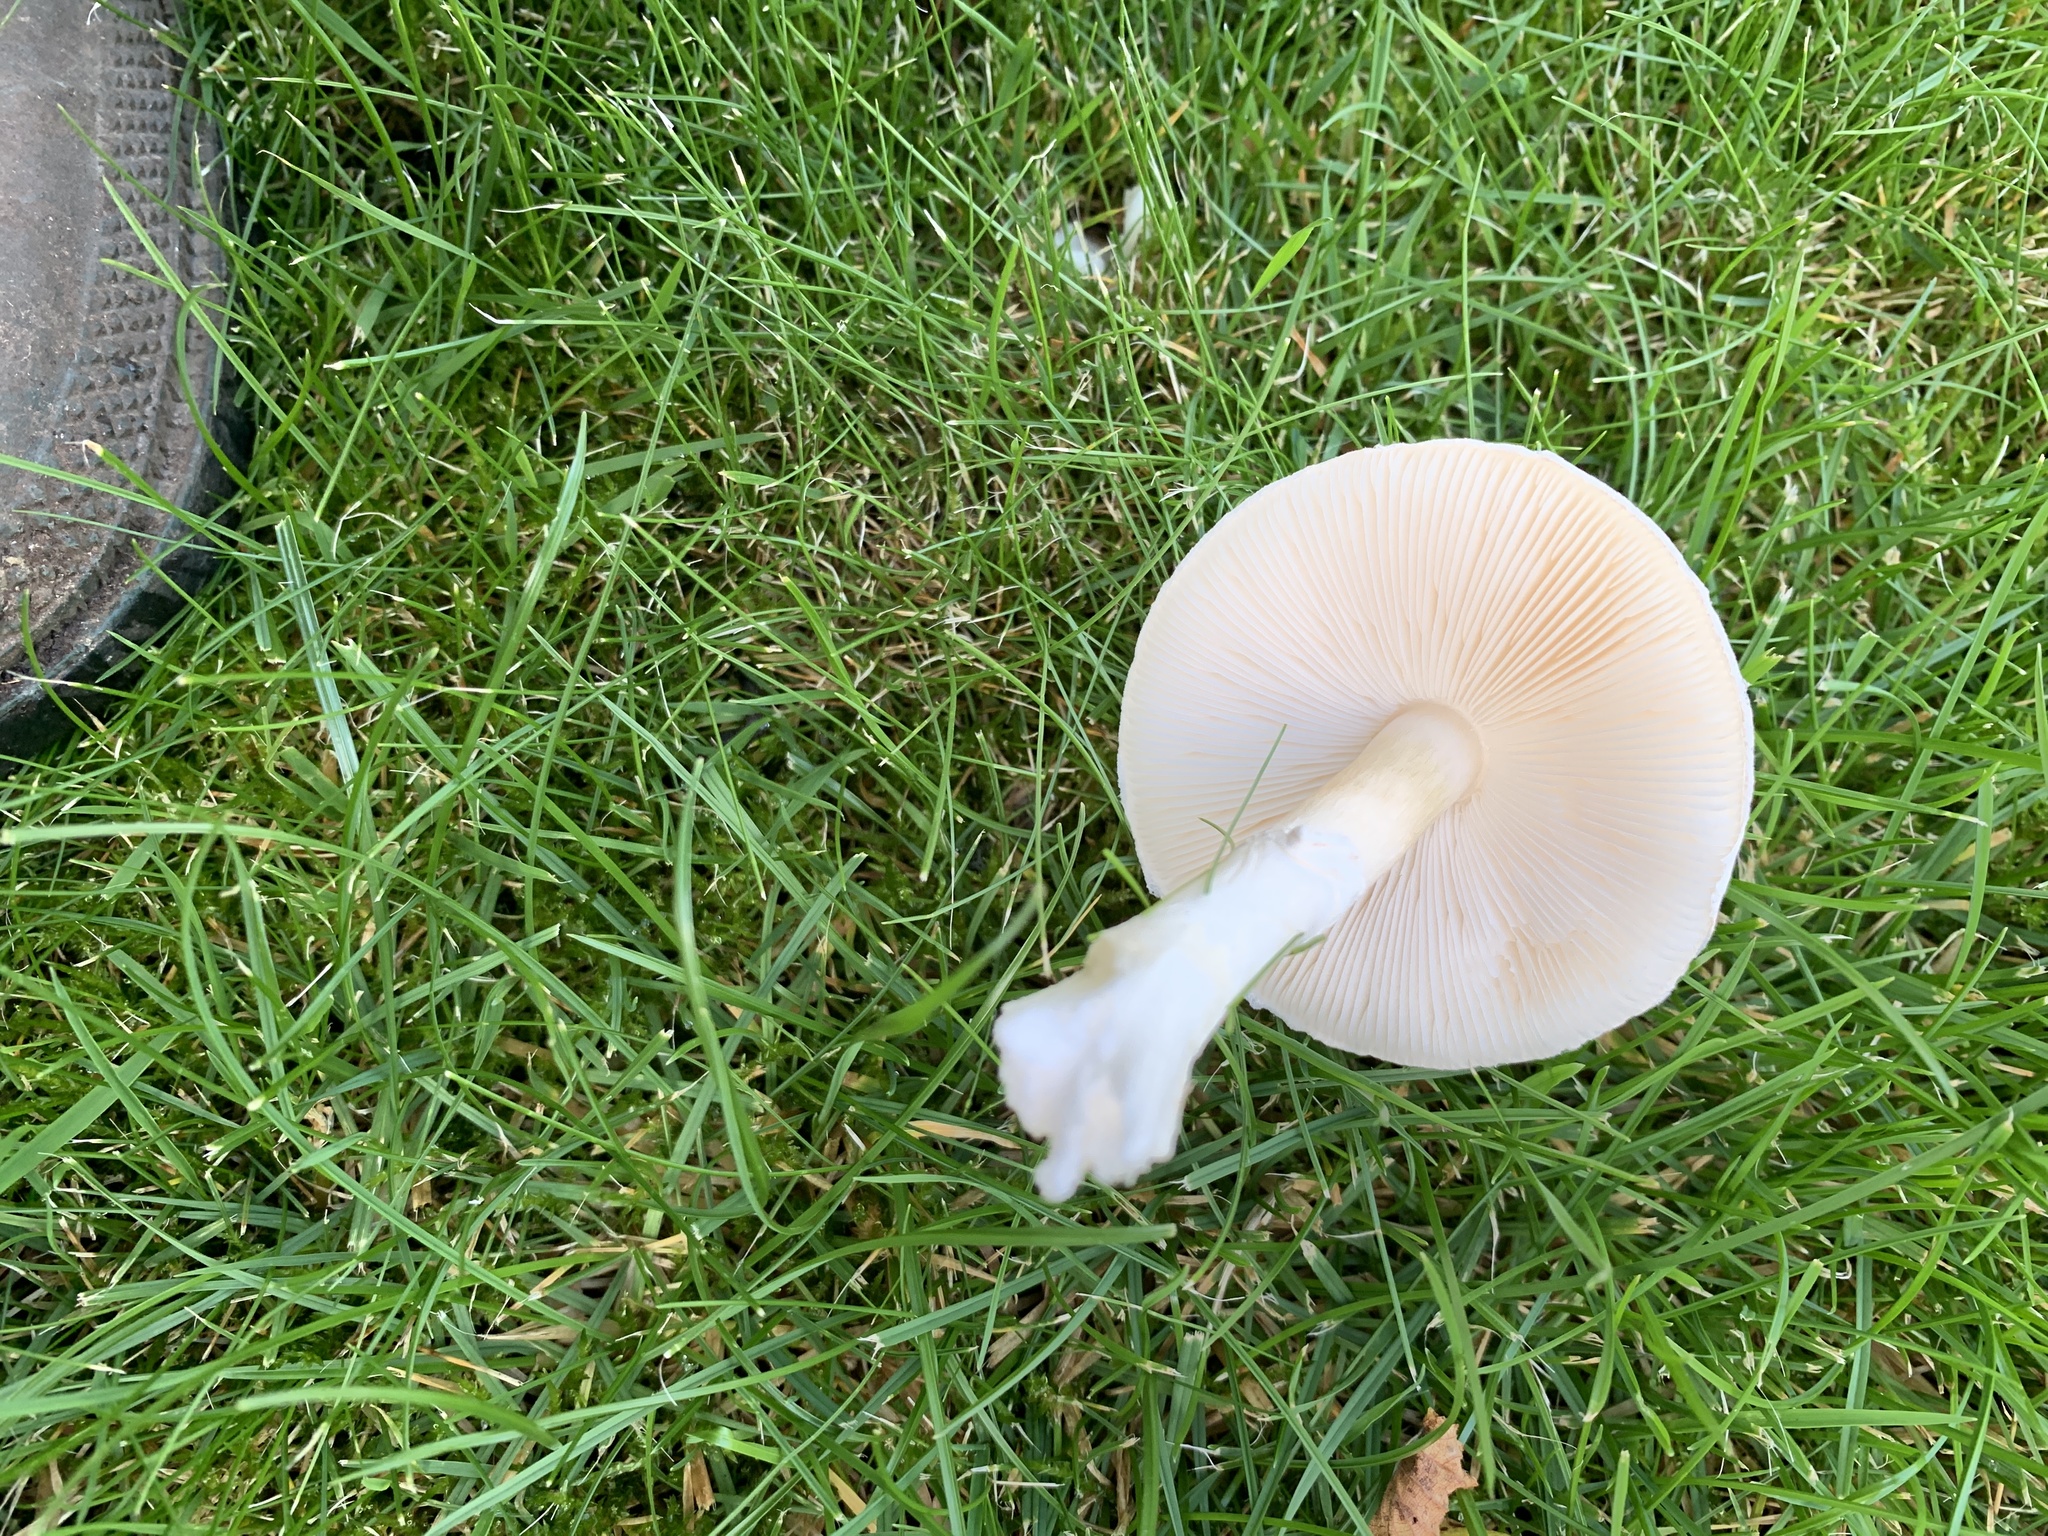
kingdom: Fungi
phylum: Basidiomycota
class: Agaricomycetes
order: Agaricales
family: Agaricaceae
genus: Leucoagaricus
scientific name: Leucoagaricus leucothites
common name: White dapperling
